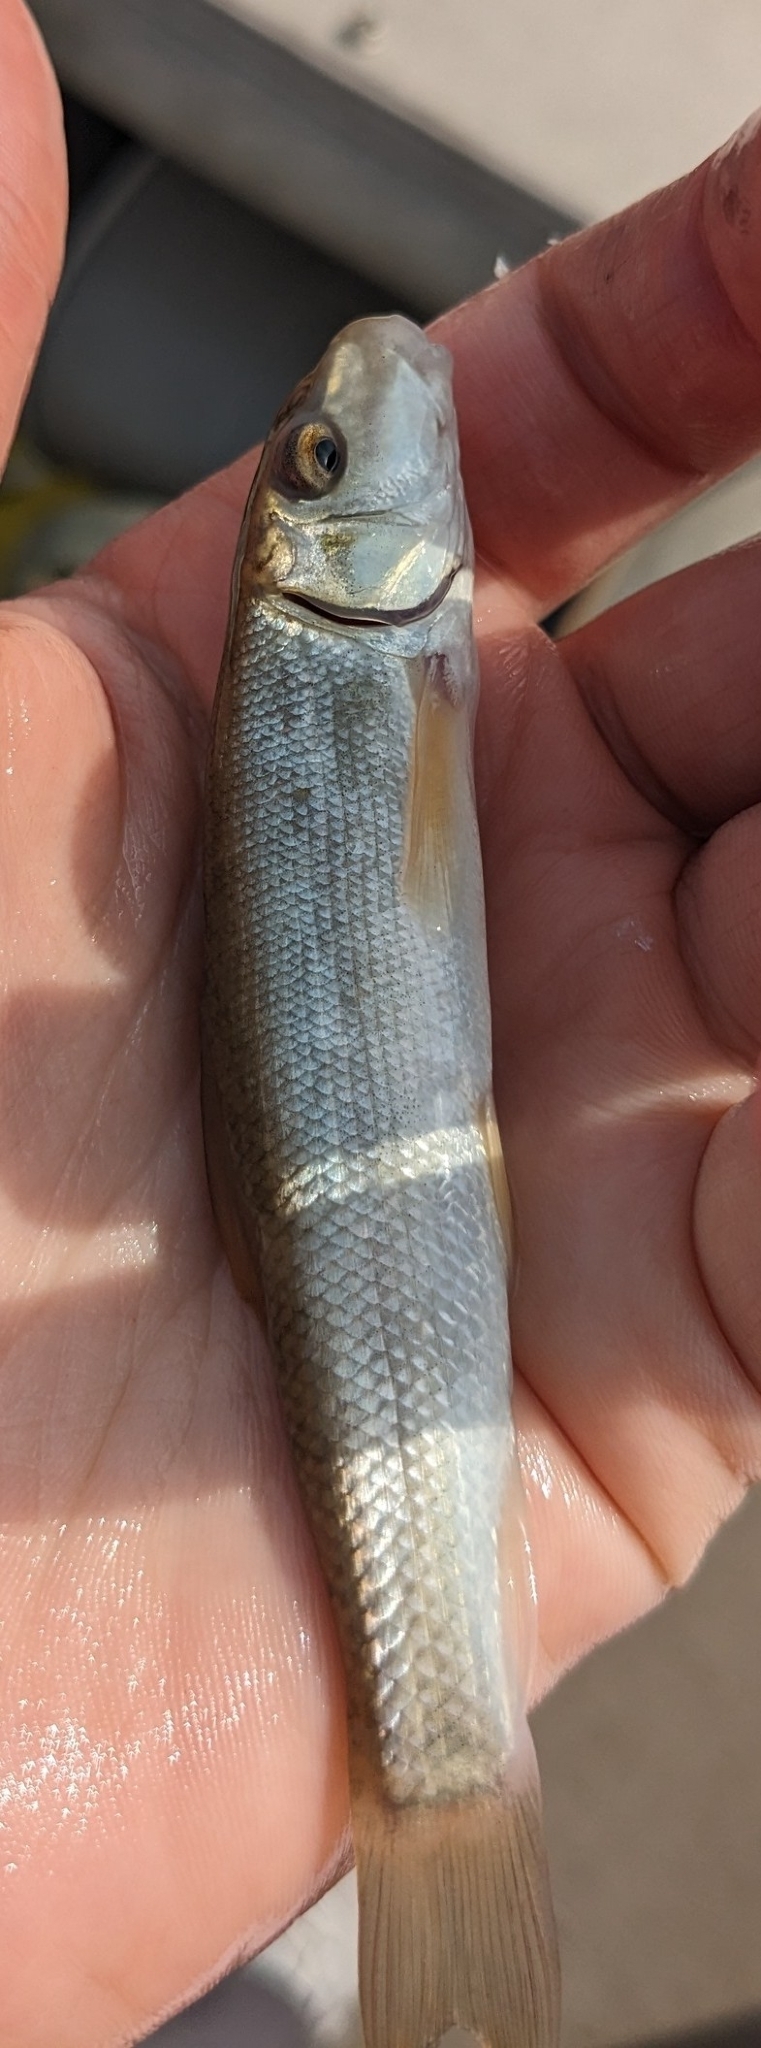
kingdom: Animalia
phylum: Chordata
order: Cypriniformes
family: Catostomidae
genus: Catostomus
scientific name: Catostomus commersonii
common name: White sucker
